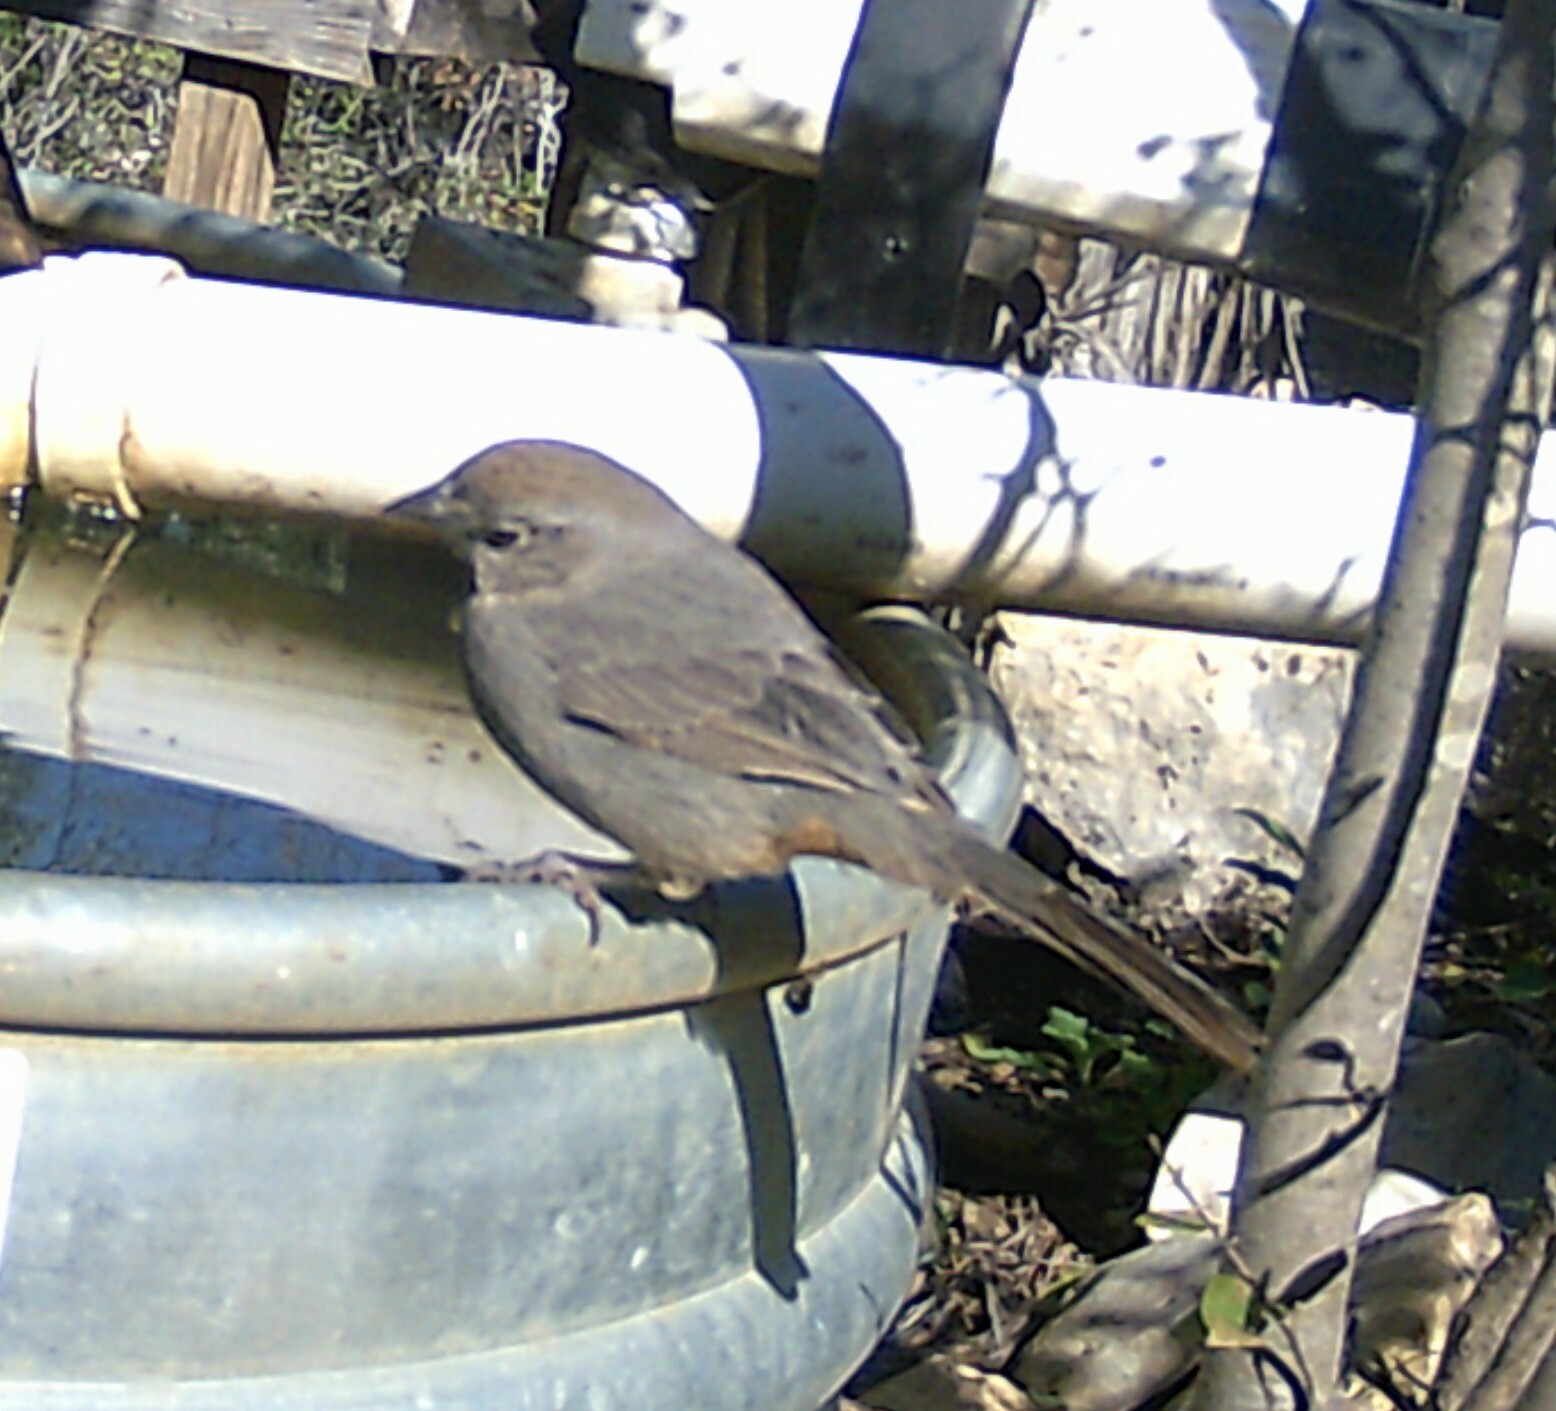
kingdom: Animalia
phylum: Chordata
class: Aves
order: Passeriformes
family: Passerellidae
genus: Melozone
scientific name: Melozone fusca
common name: Canyon towhee
